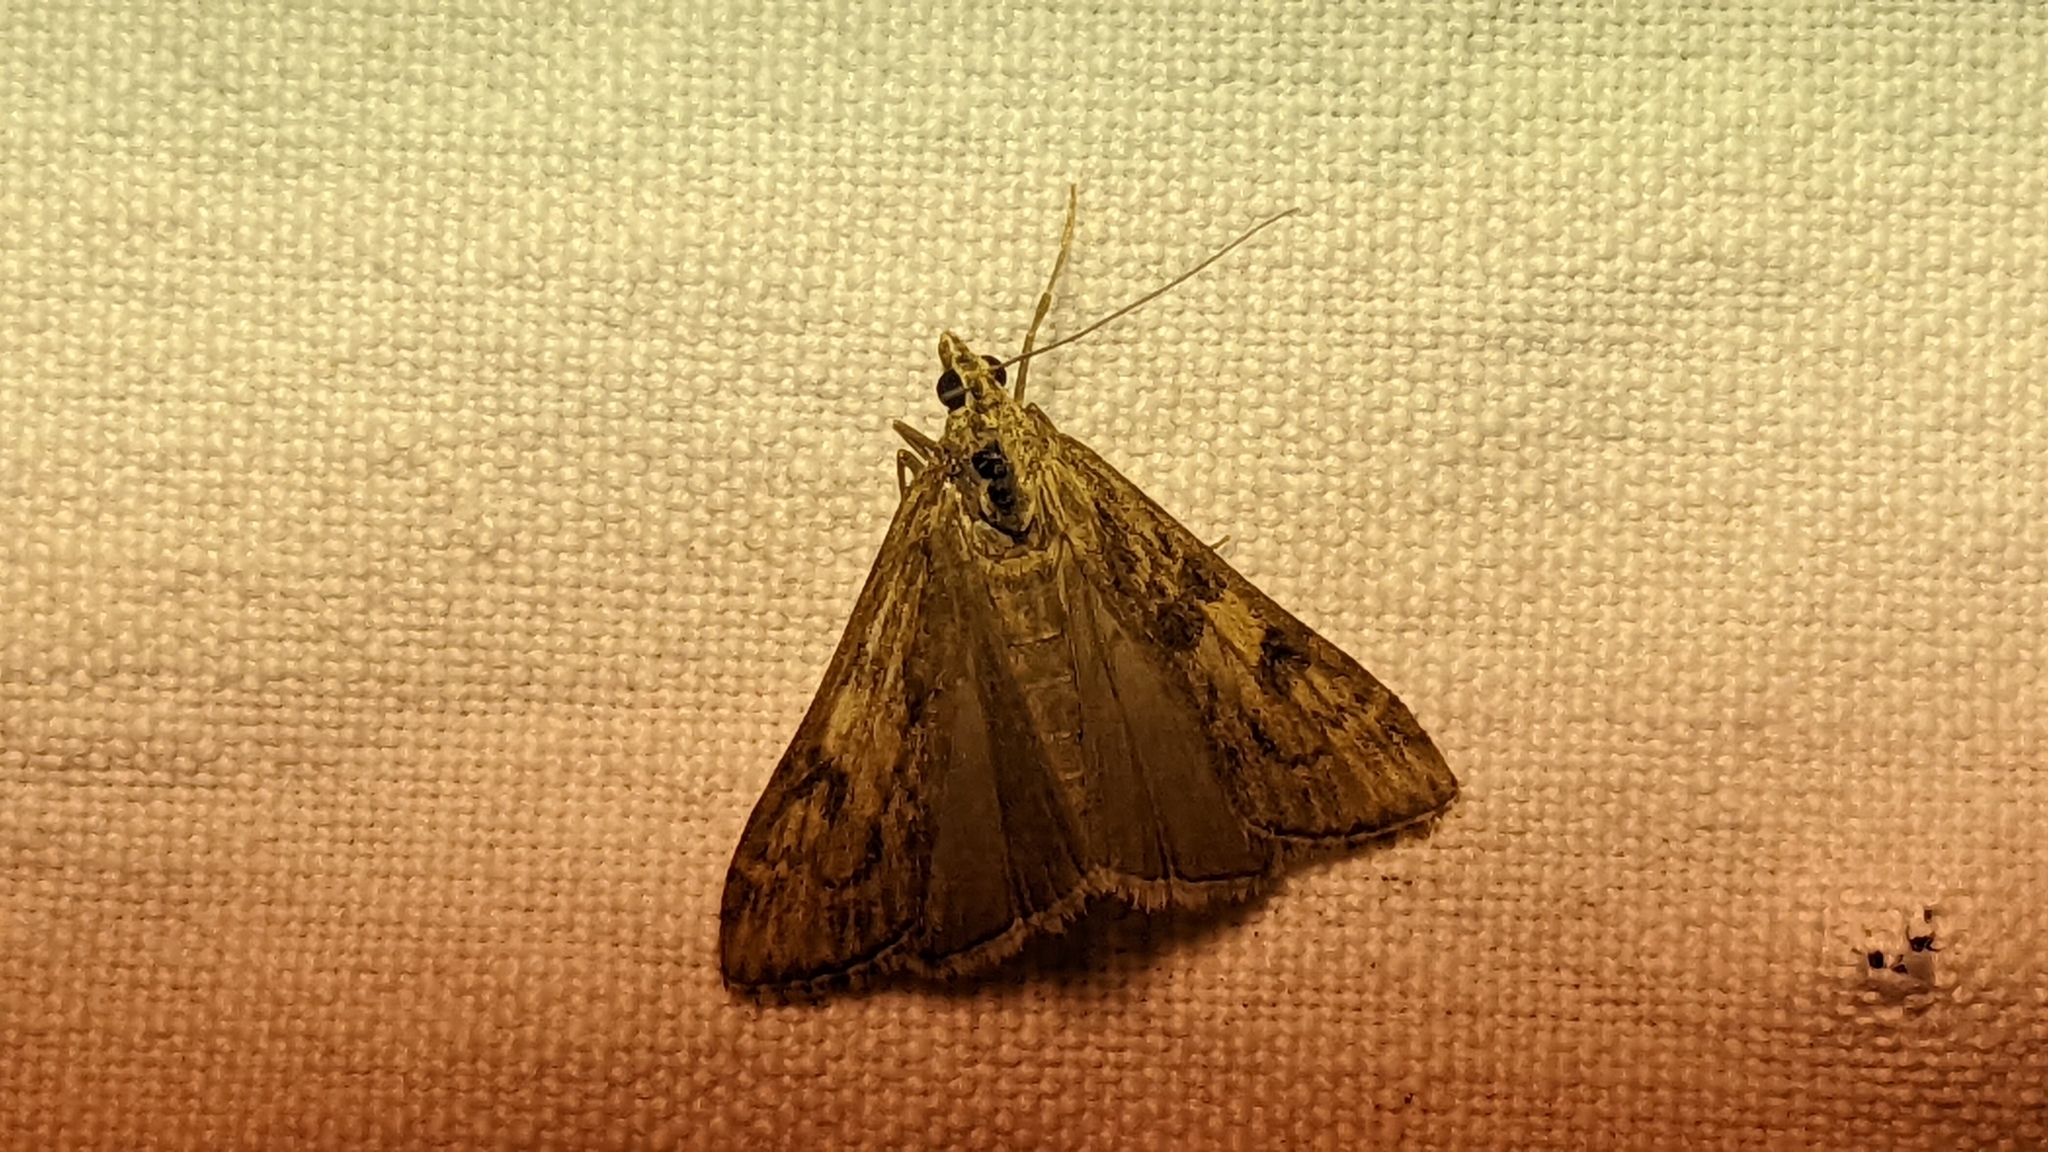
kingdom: Animalia
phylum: Arthropoda
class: Insecta
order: Lepidoptera
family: Crambidae
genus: Nomophila
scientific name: Nomophila noctuella
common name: Rush veneer
